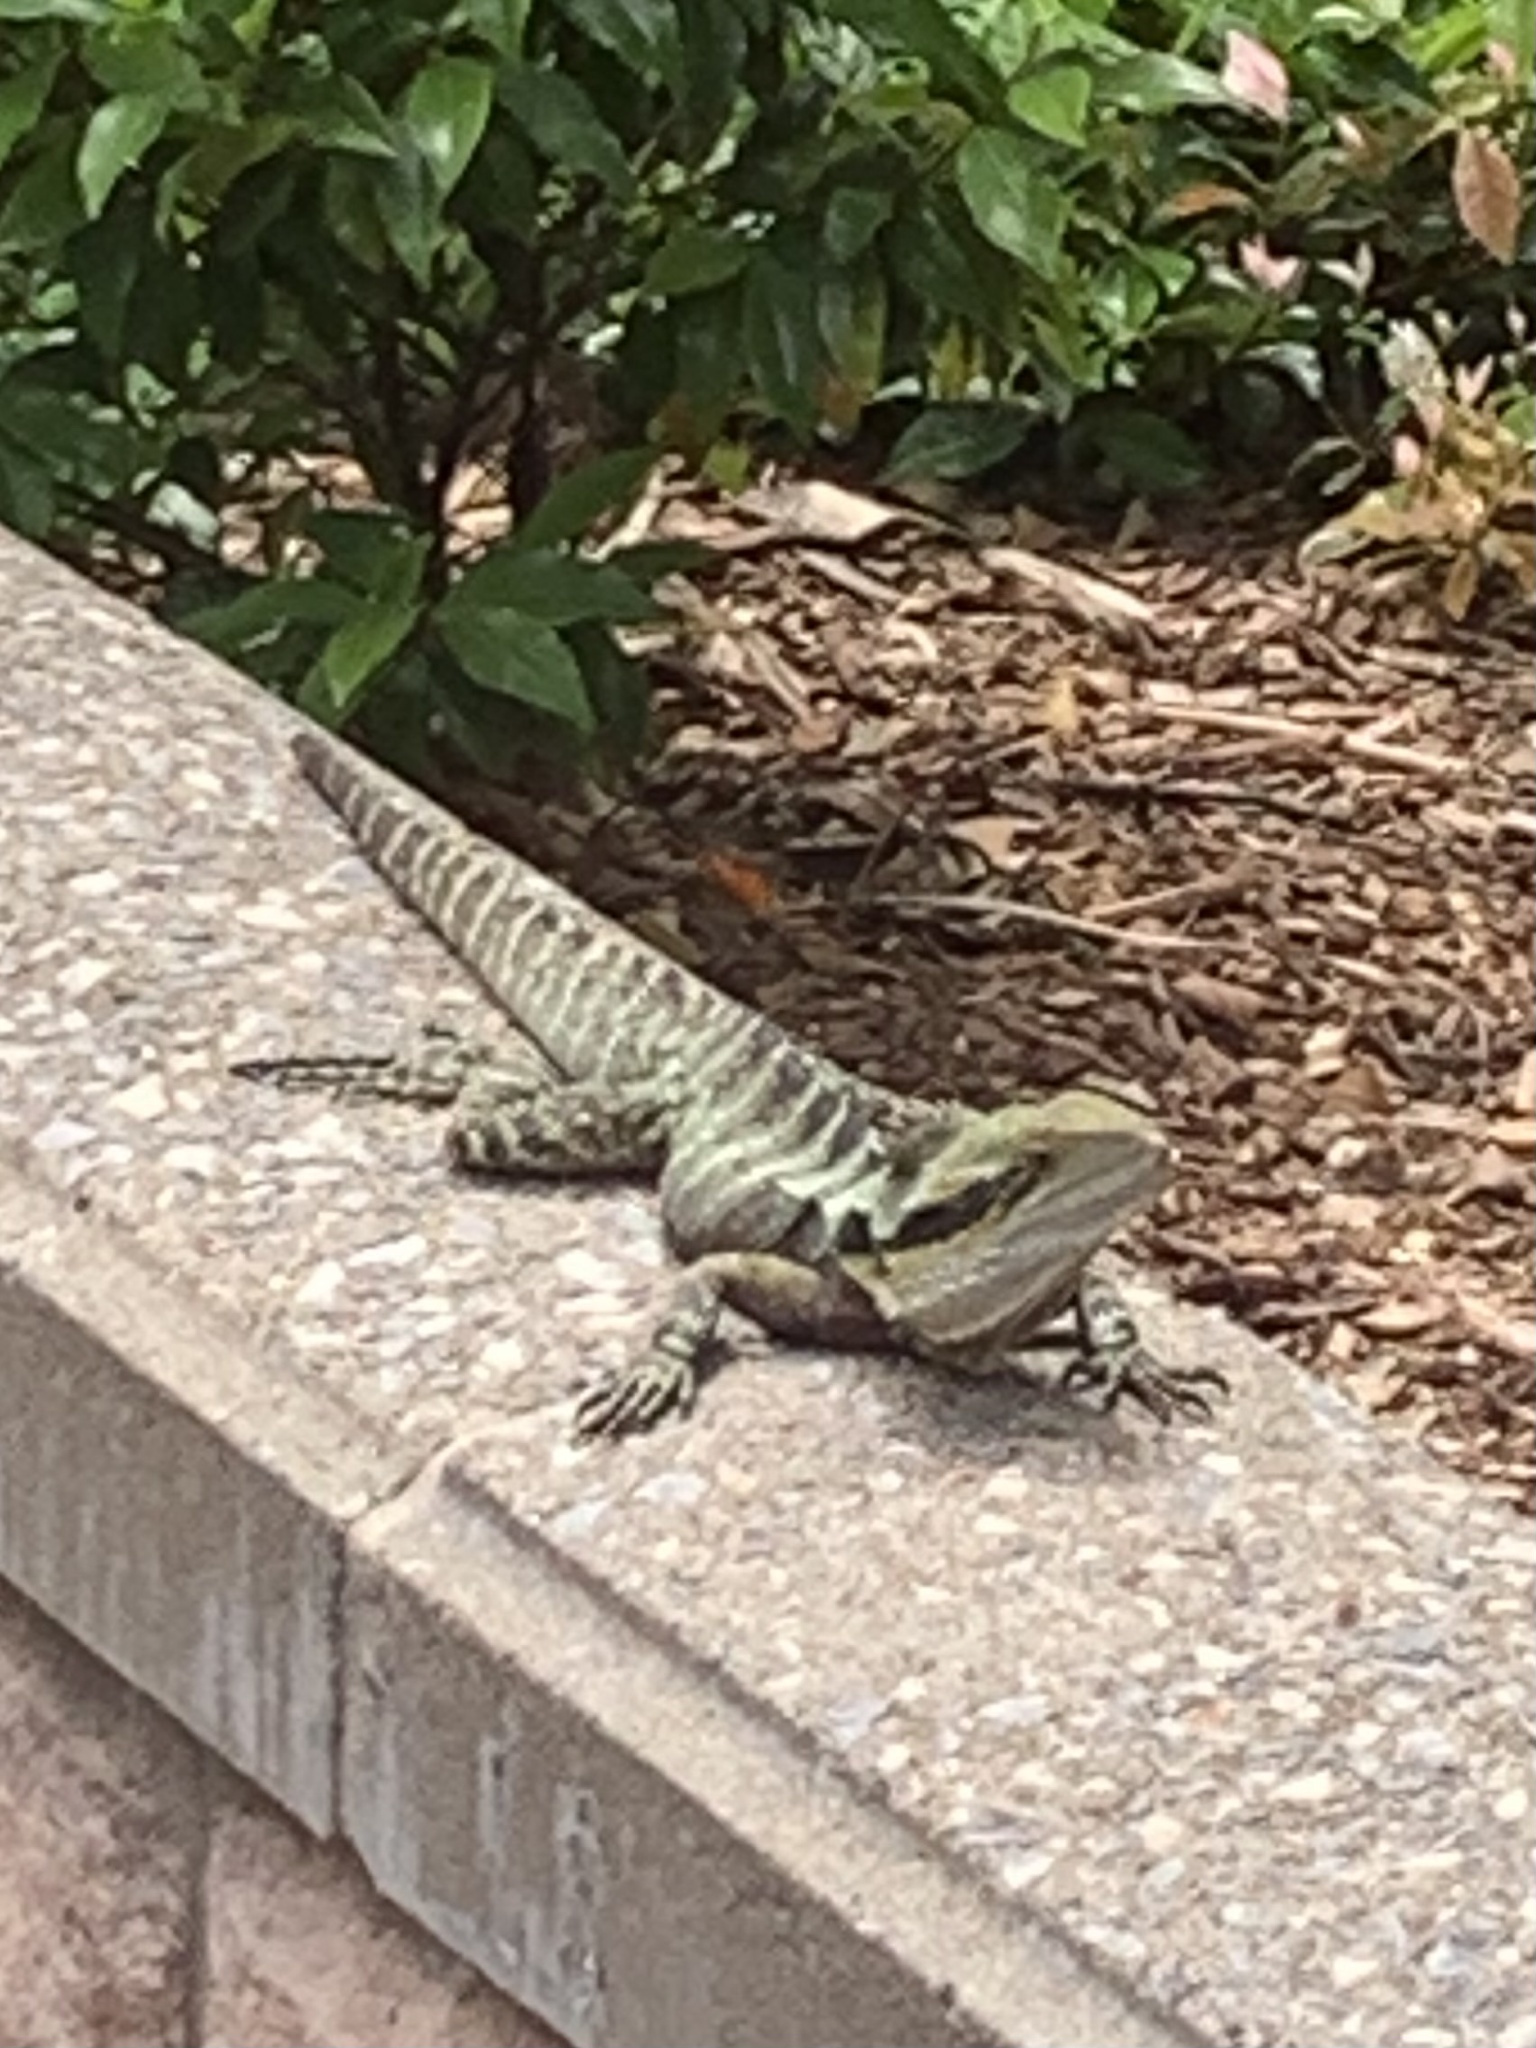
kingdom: Animalia
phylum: Chordata
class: Squamata
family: Agamidae
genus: Intellagama
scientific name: Intellagama lesueurii
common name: Eastern water dragon
